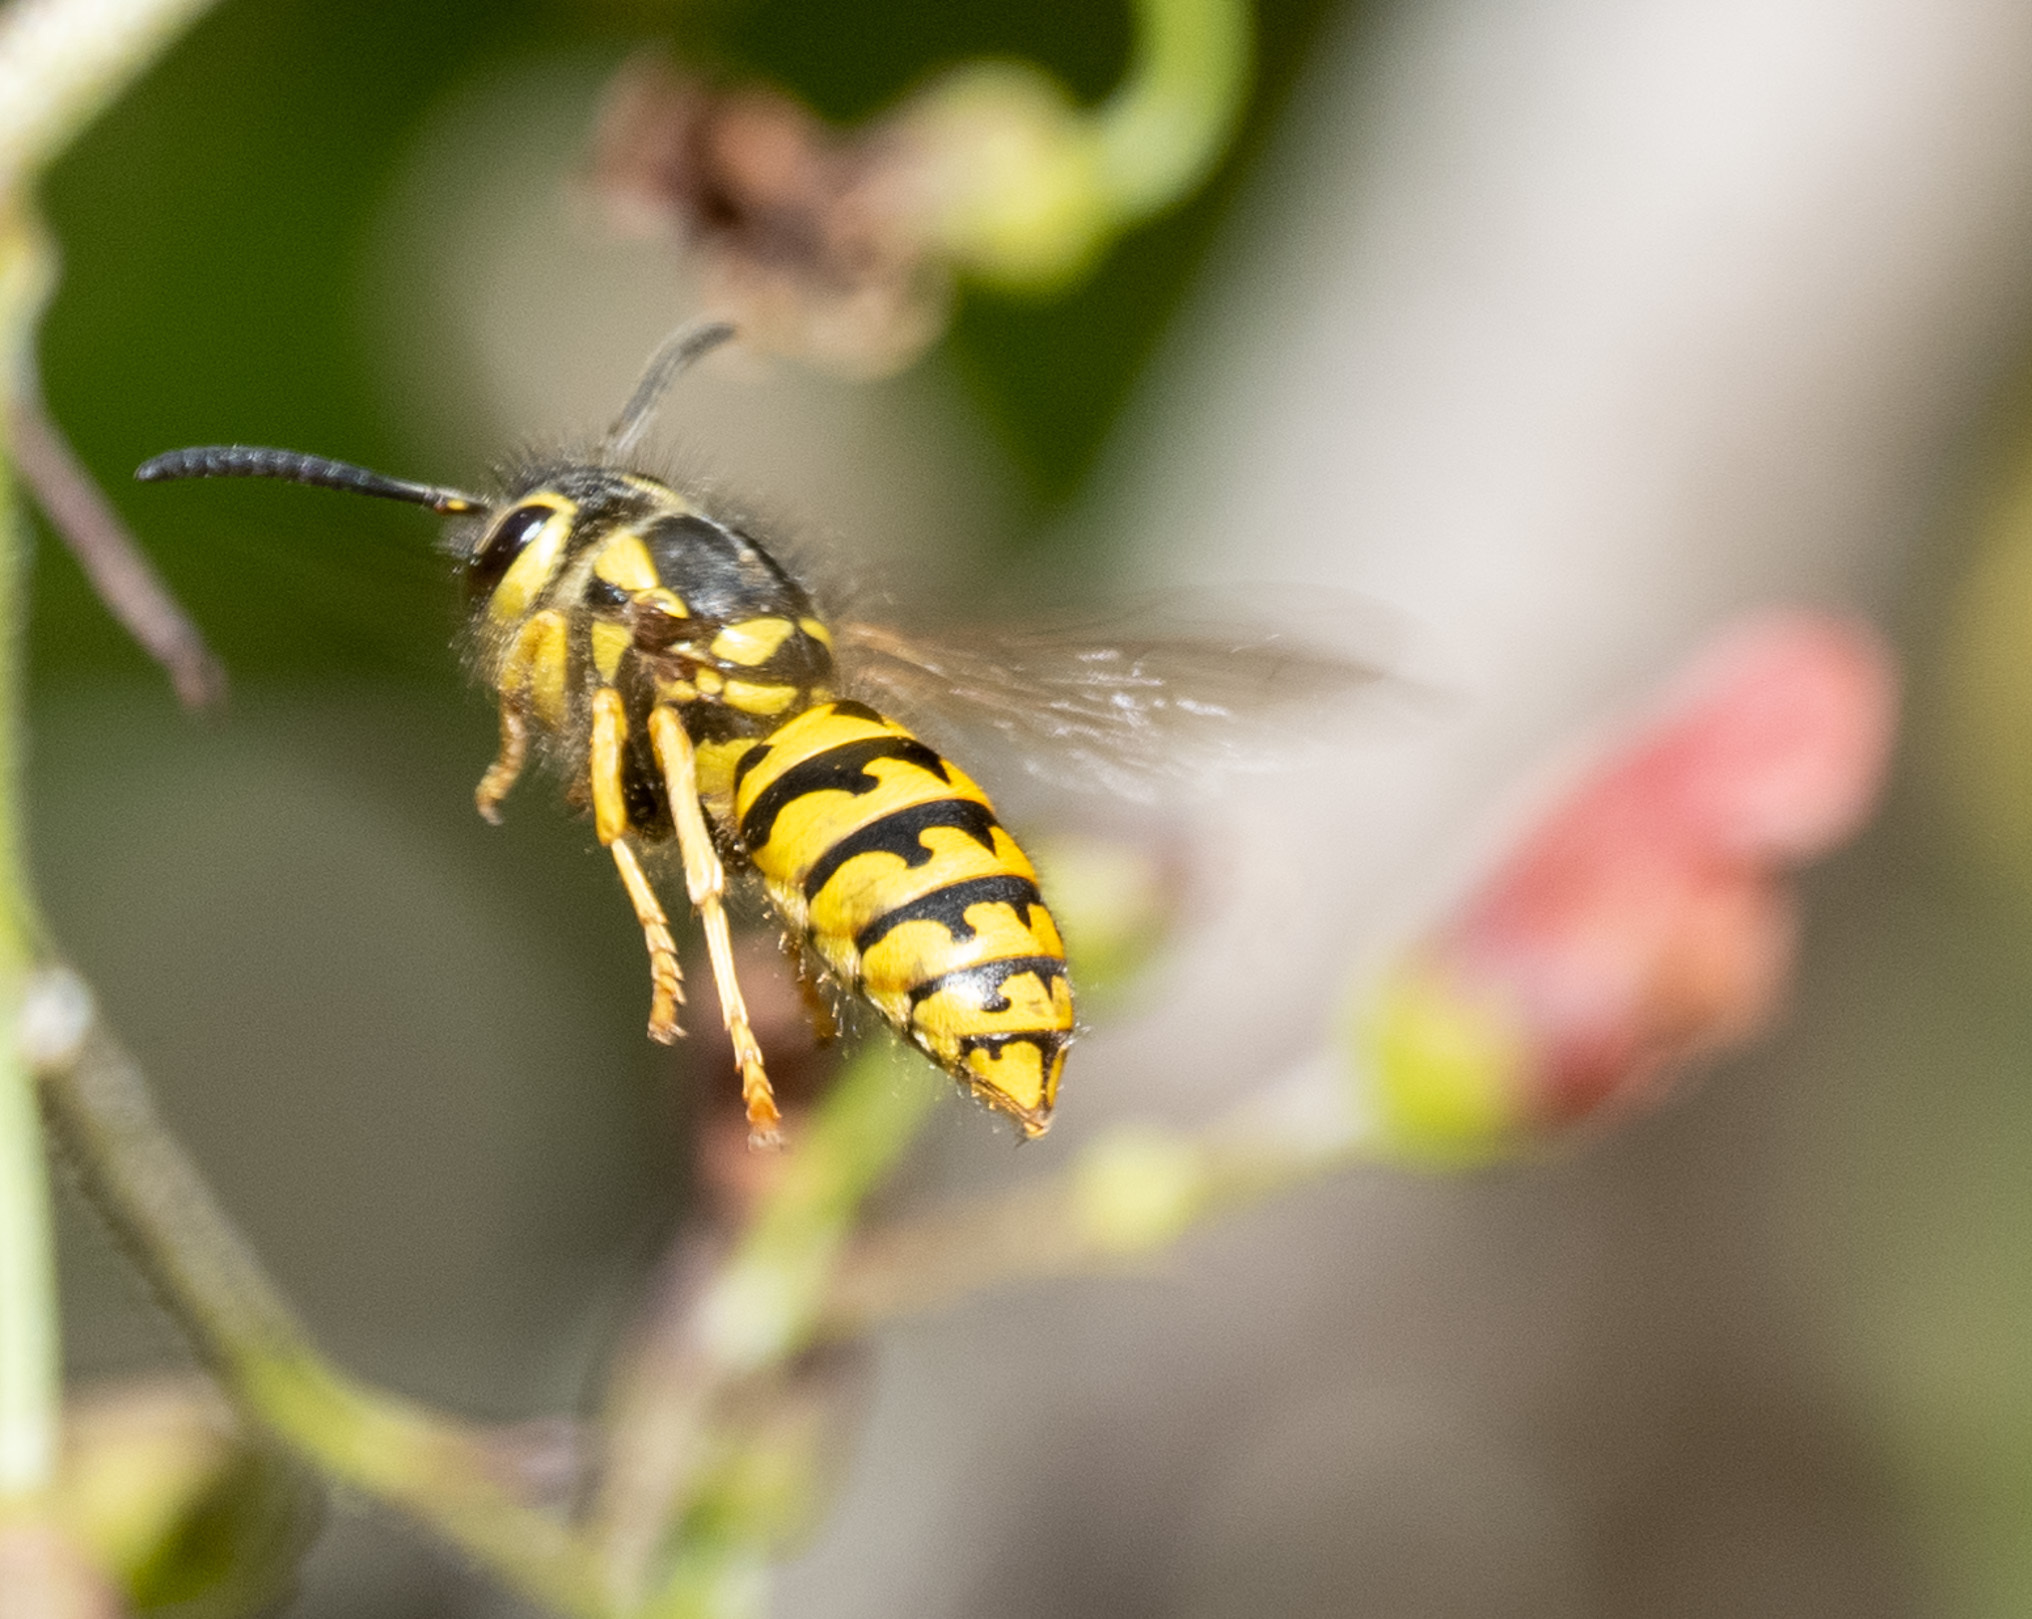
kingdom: Animalia
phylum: Arthropoda
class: Insecta
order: Hymenoptera
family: Vespidae
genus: Vespula
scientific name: Vespula pensylvanica
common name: Western yellowjacket
